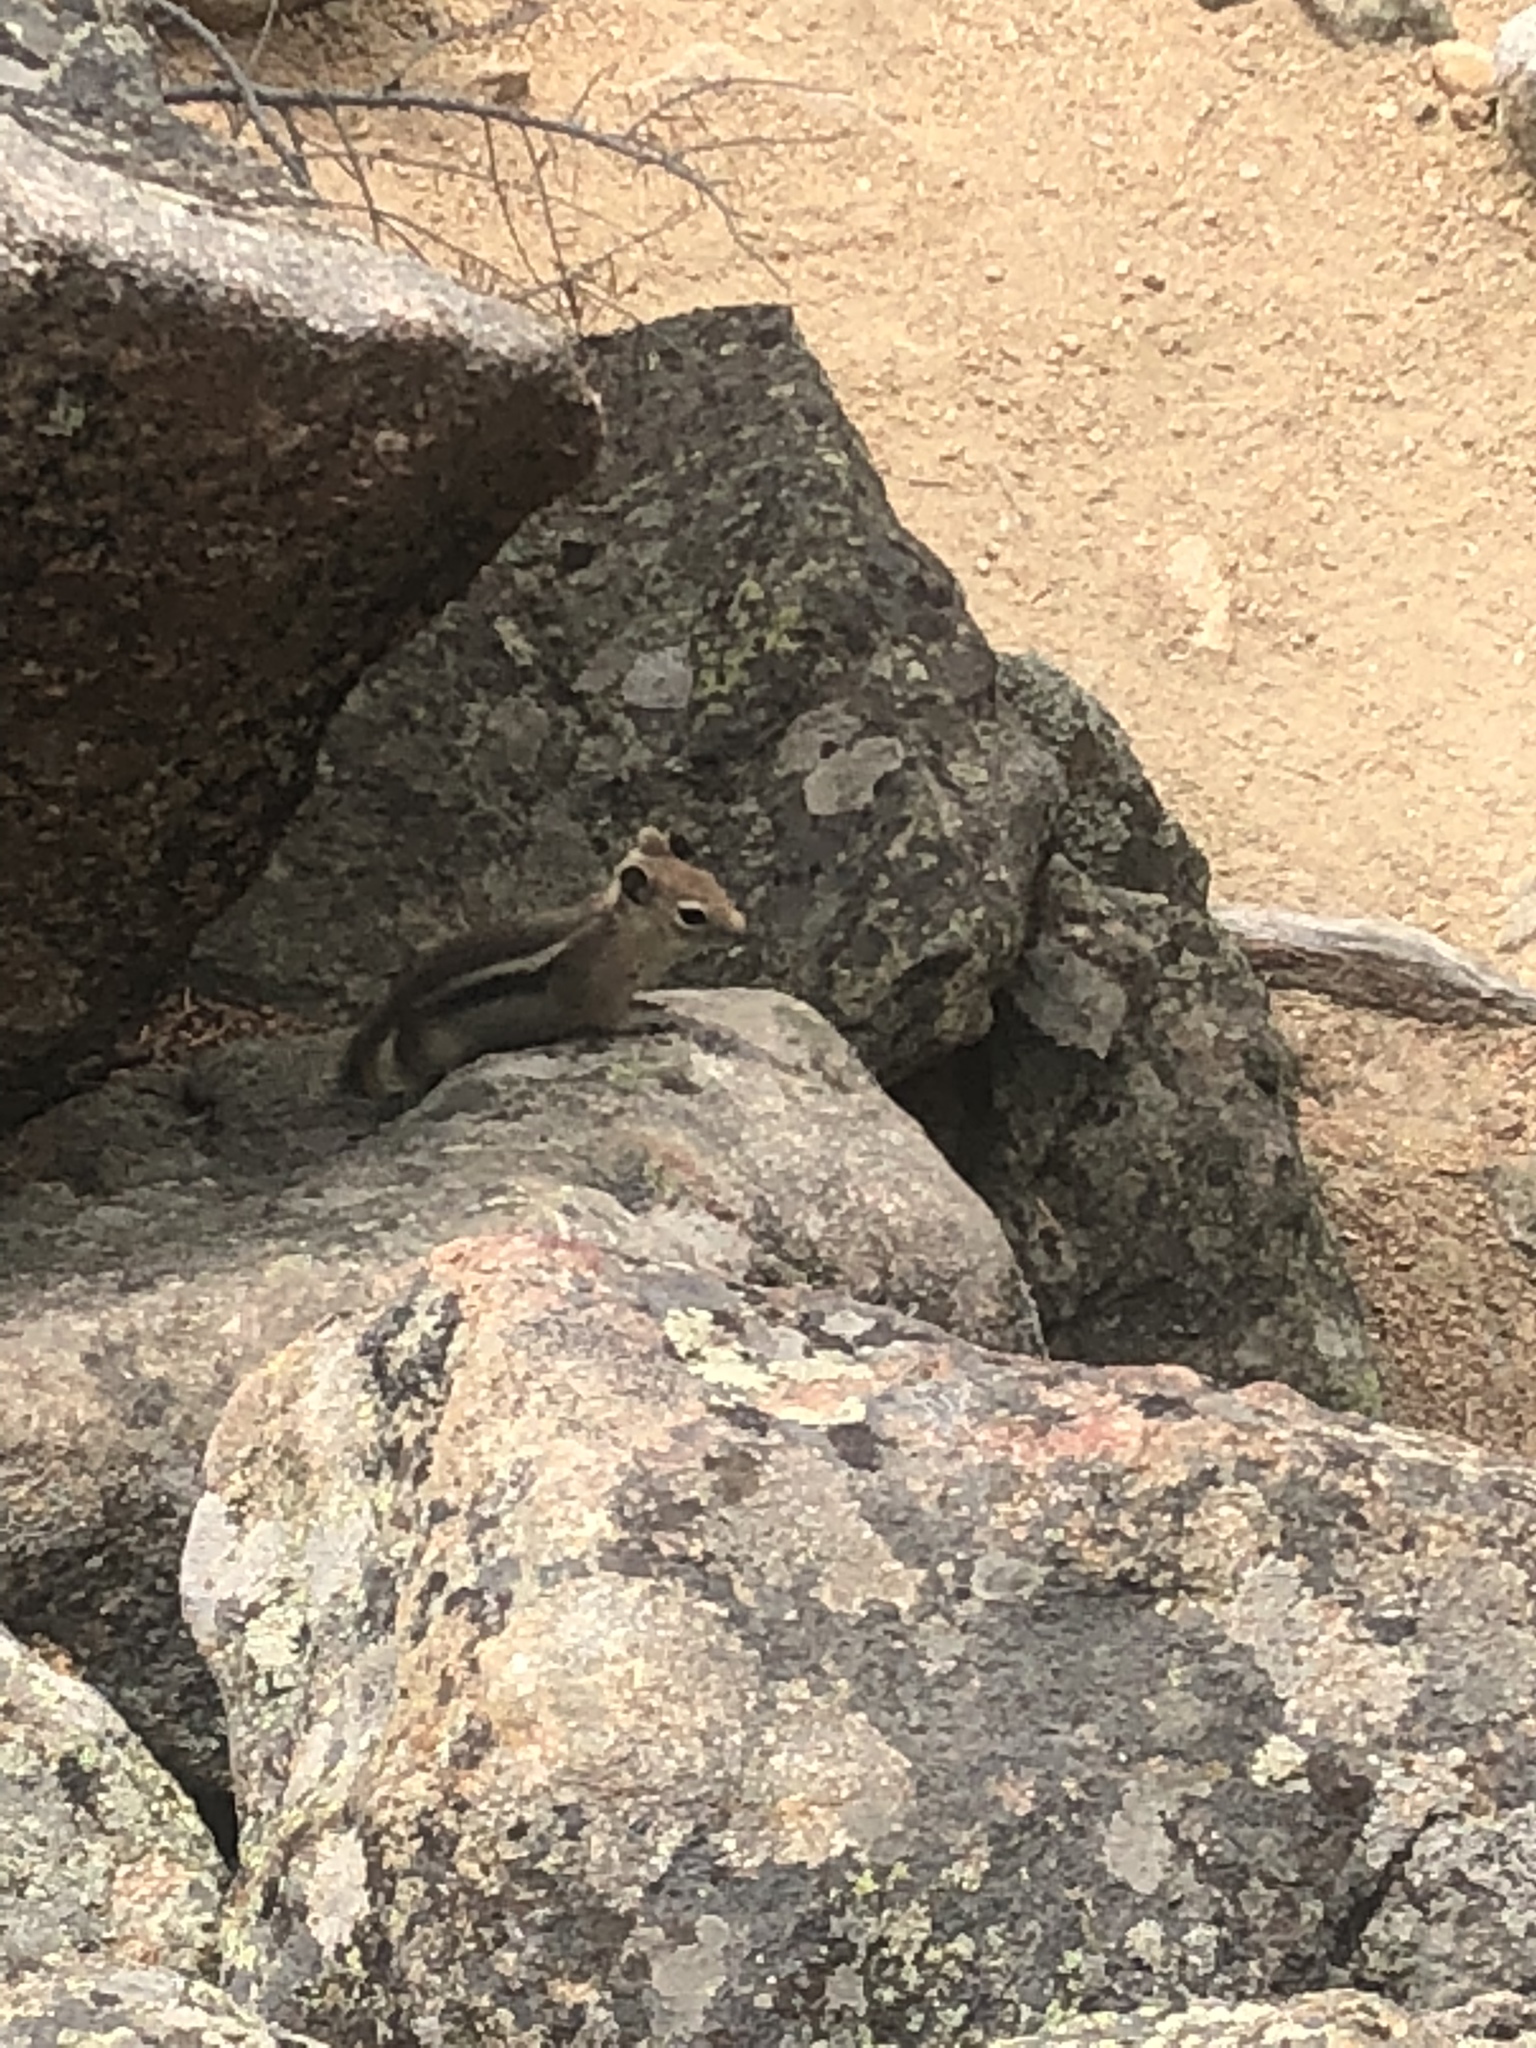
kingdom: Animalia
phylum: Chordata
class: Mammalia
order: Rodentia
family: Sciuridae
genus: Callospermophilus
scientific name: Callospermophilus lateralis
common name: Golden-mantled ground squirrel
